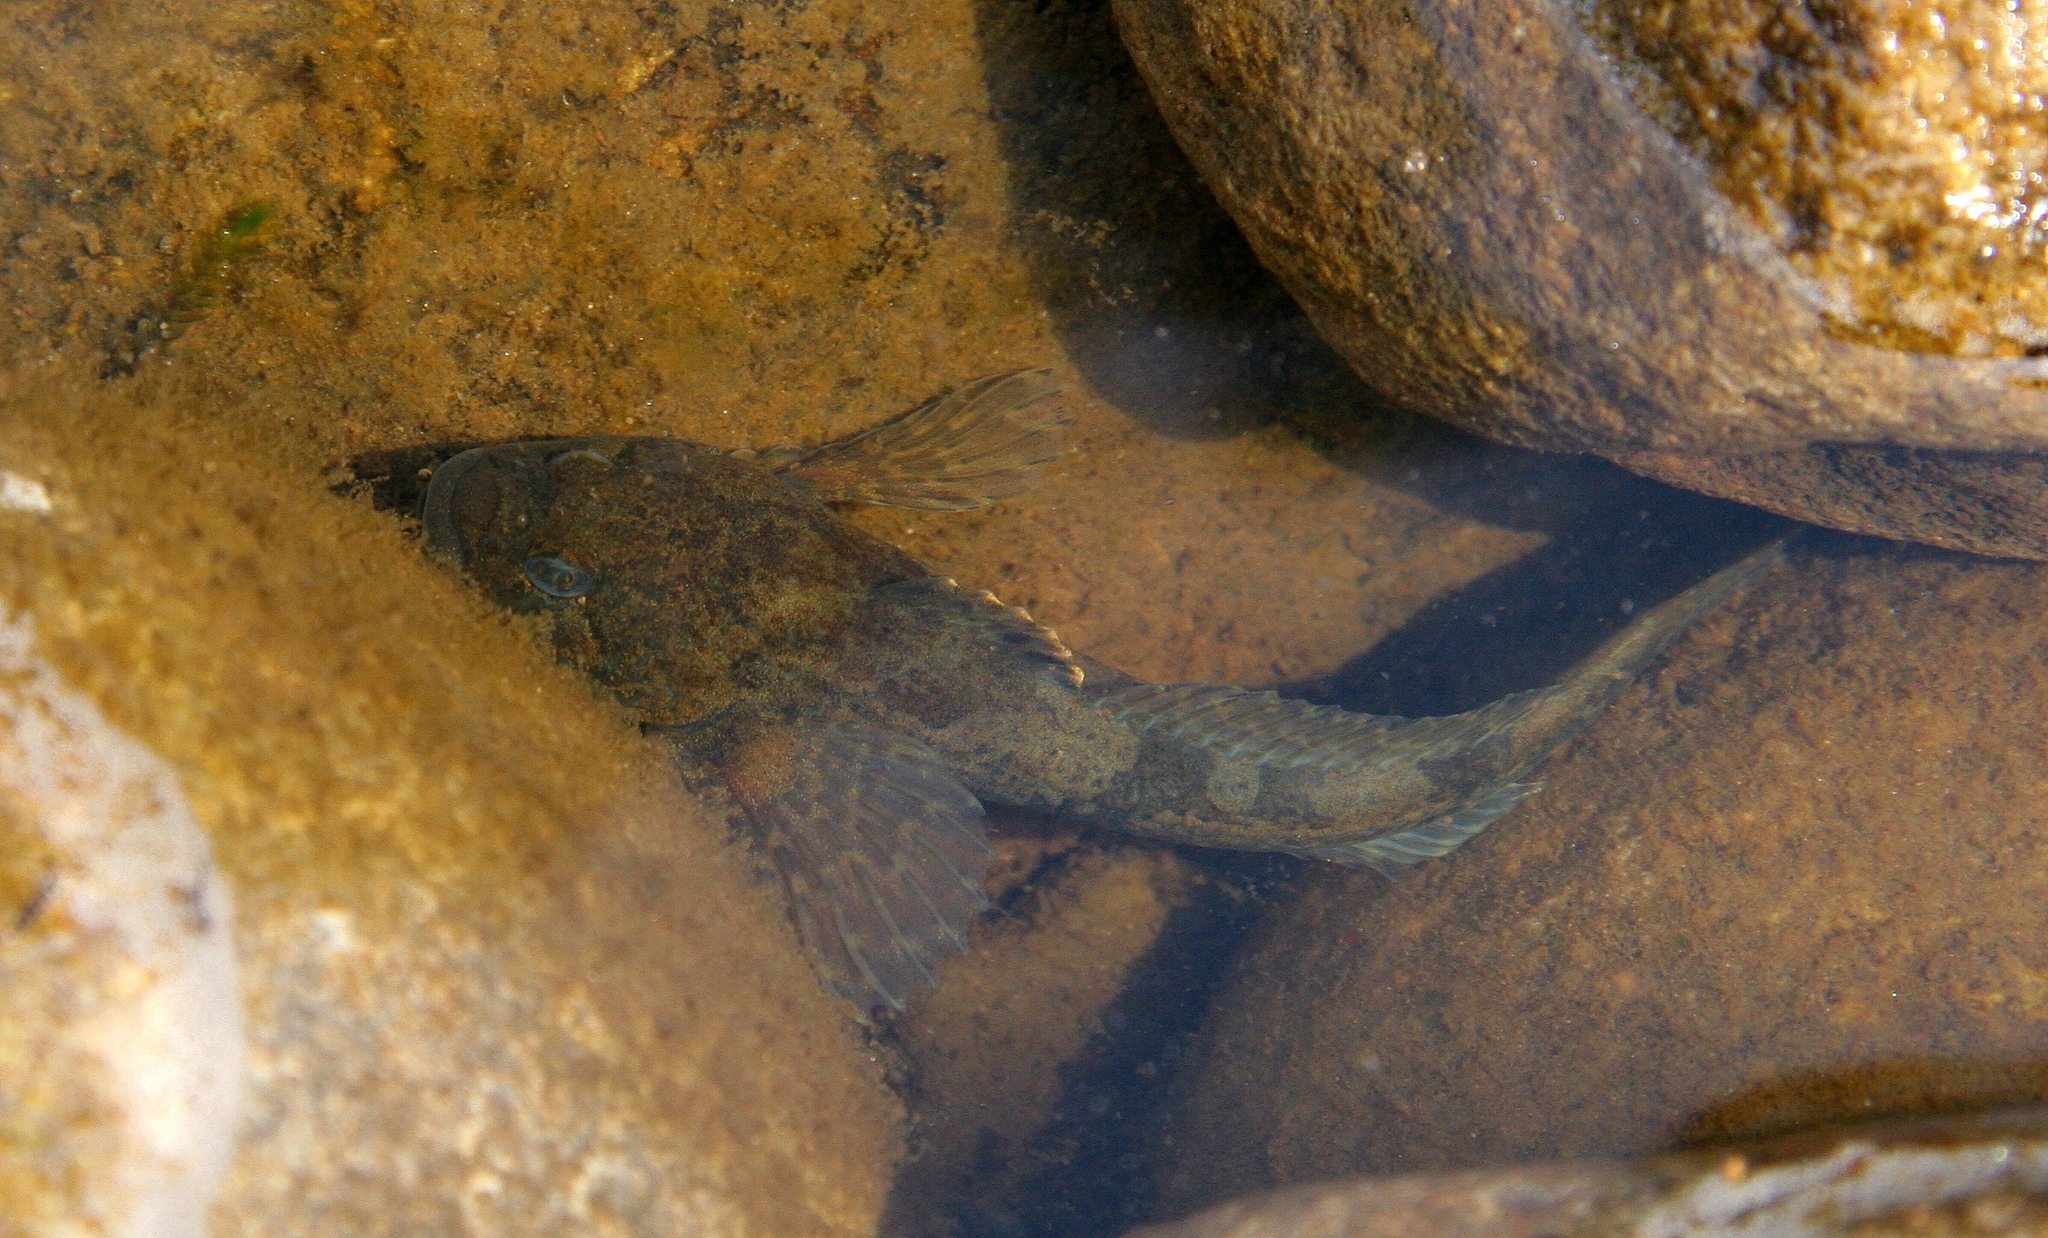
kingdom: Animalia
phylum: Chordata
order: Scorpaeniformes
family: Cottidae
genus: Cottus
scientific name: Cottus perifretum
